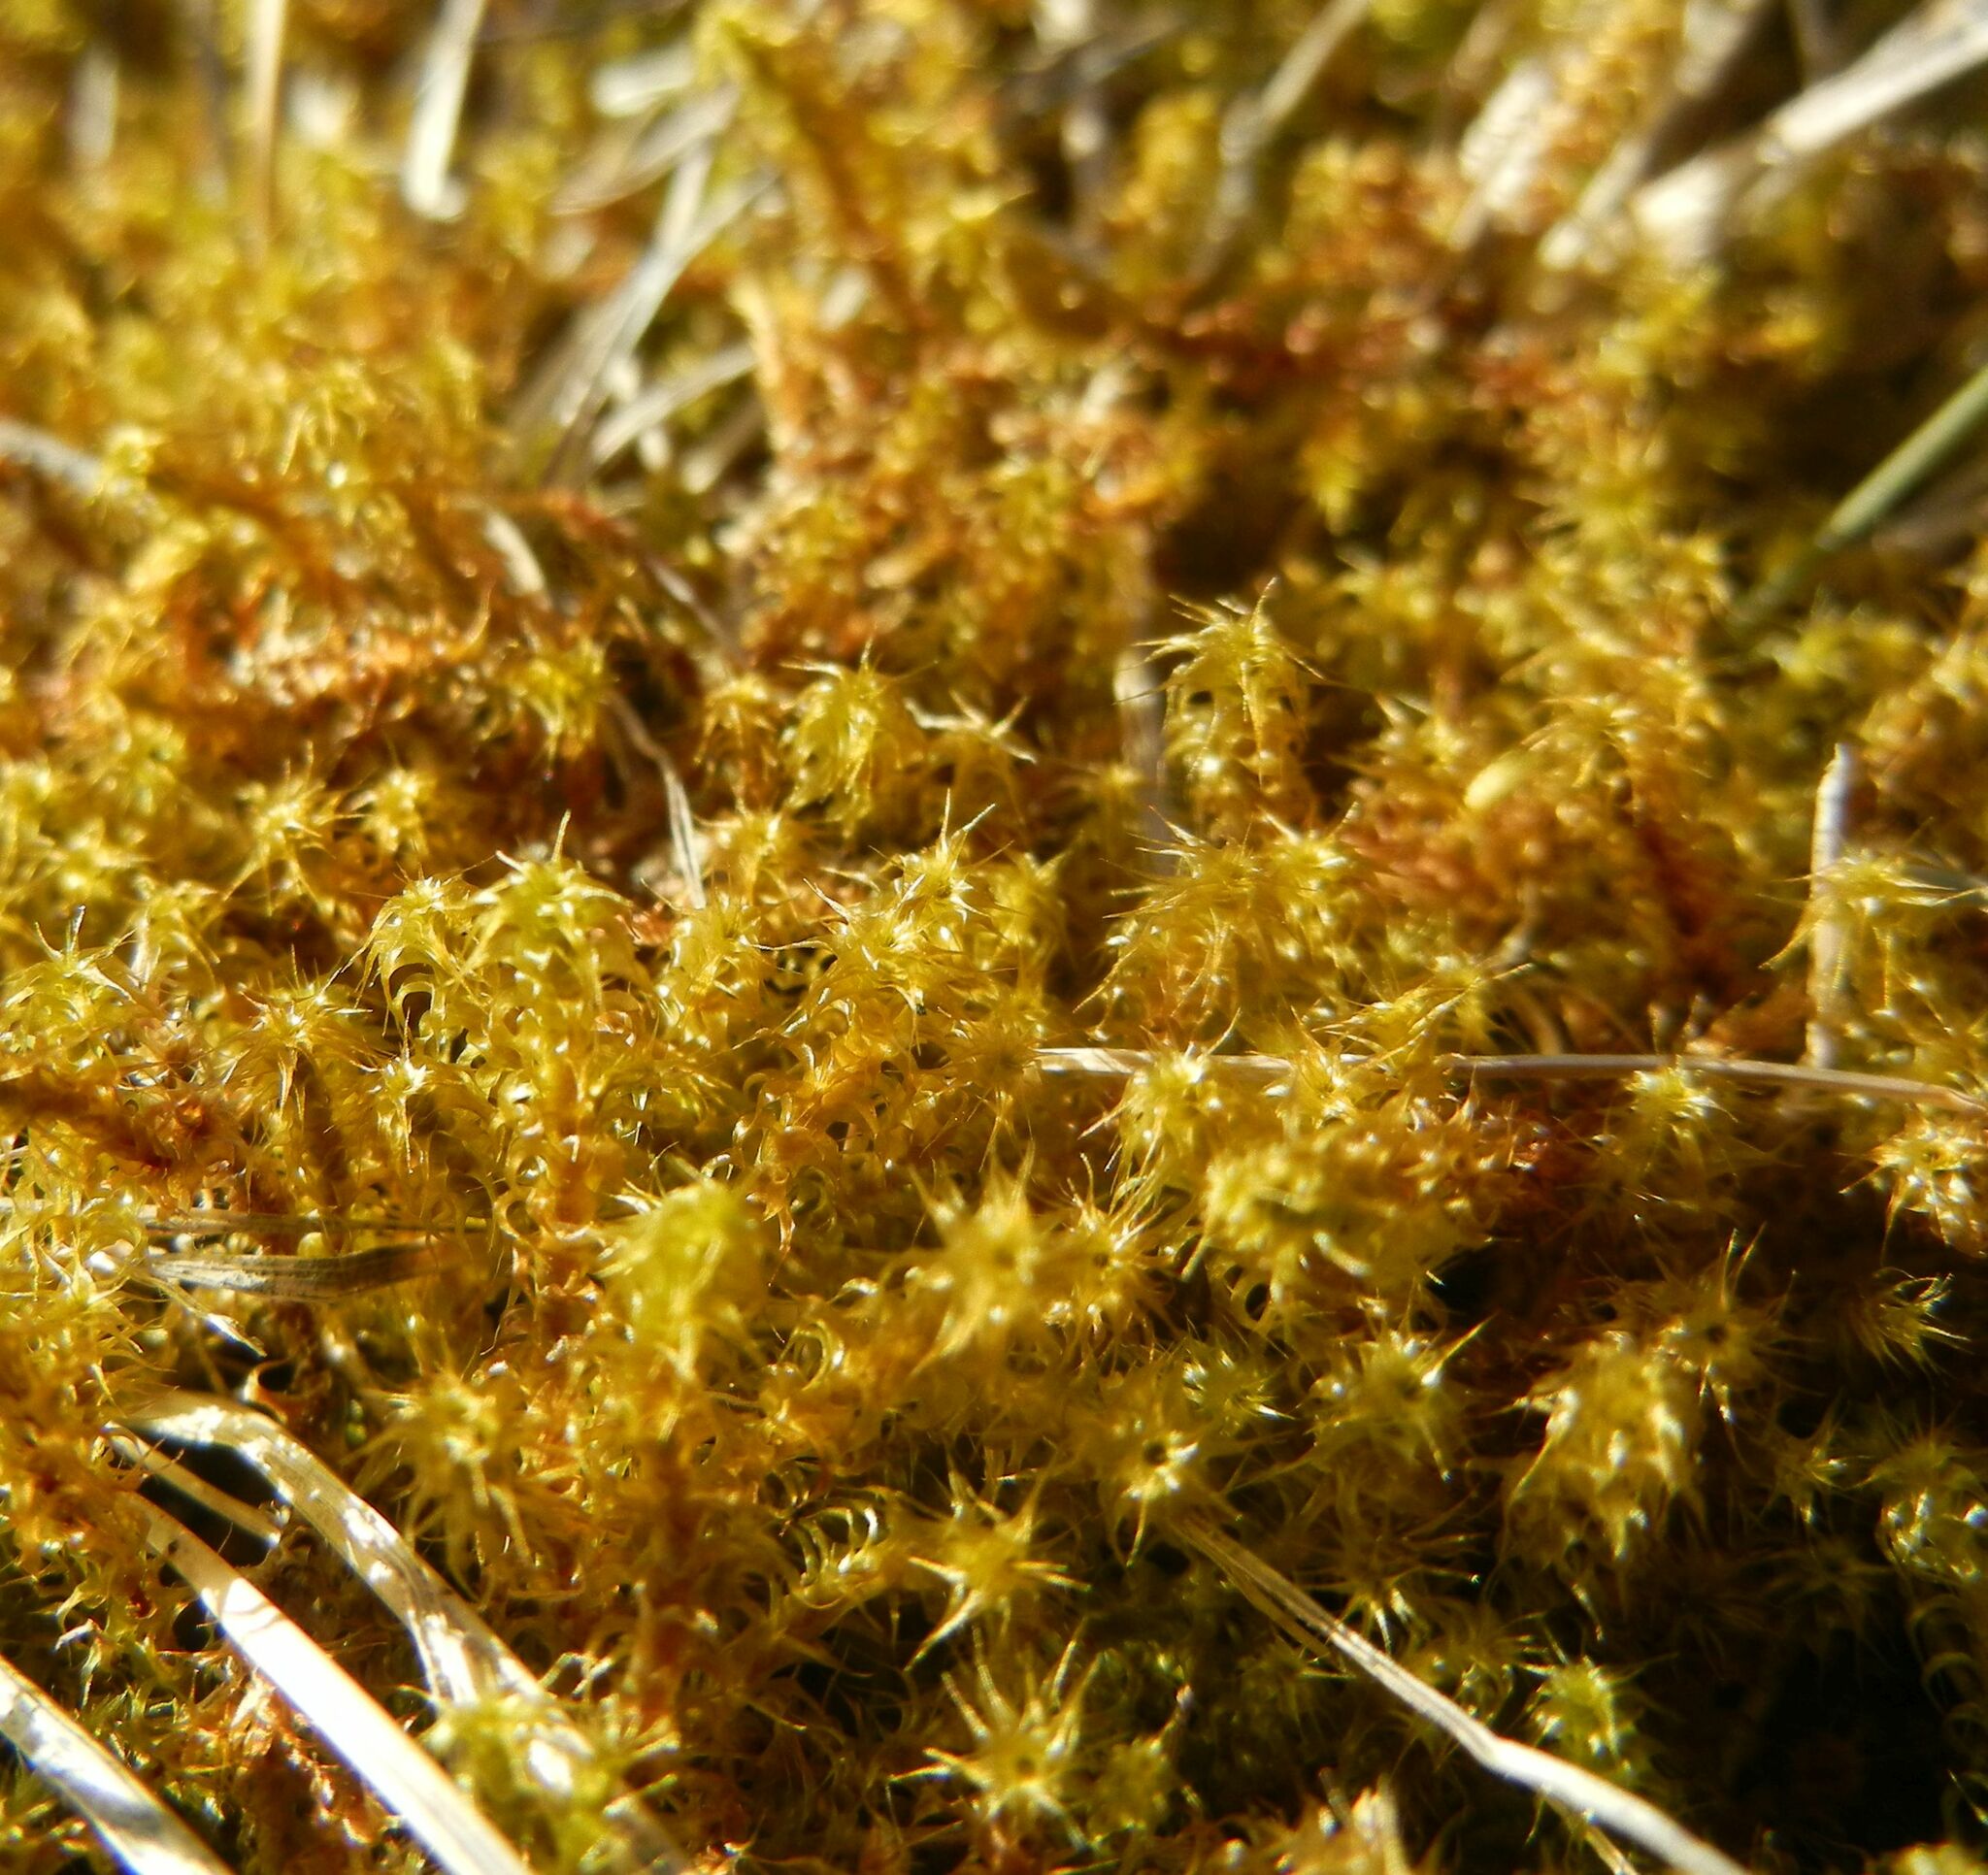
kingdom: Plantae
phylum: Bryophyta
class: Bryopsida
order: Hypnales
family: Hylocomiaceae
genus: Rhytidiadelphus
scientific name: Rhytidiadelphus squarrosus
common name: Springy turf-moss
